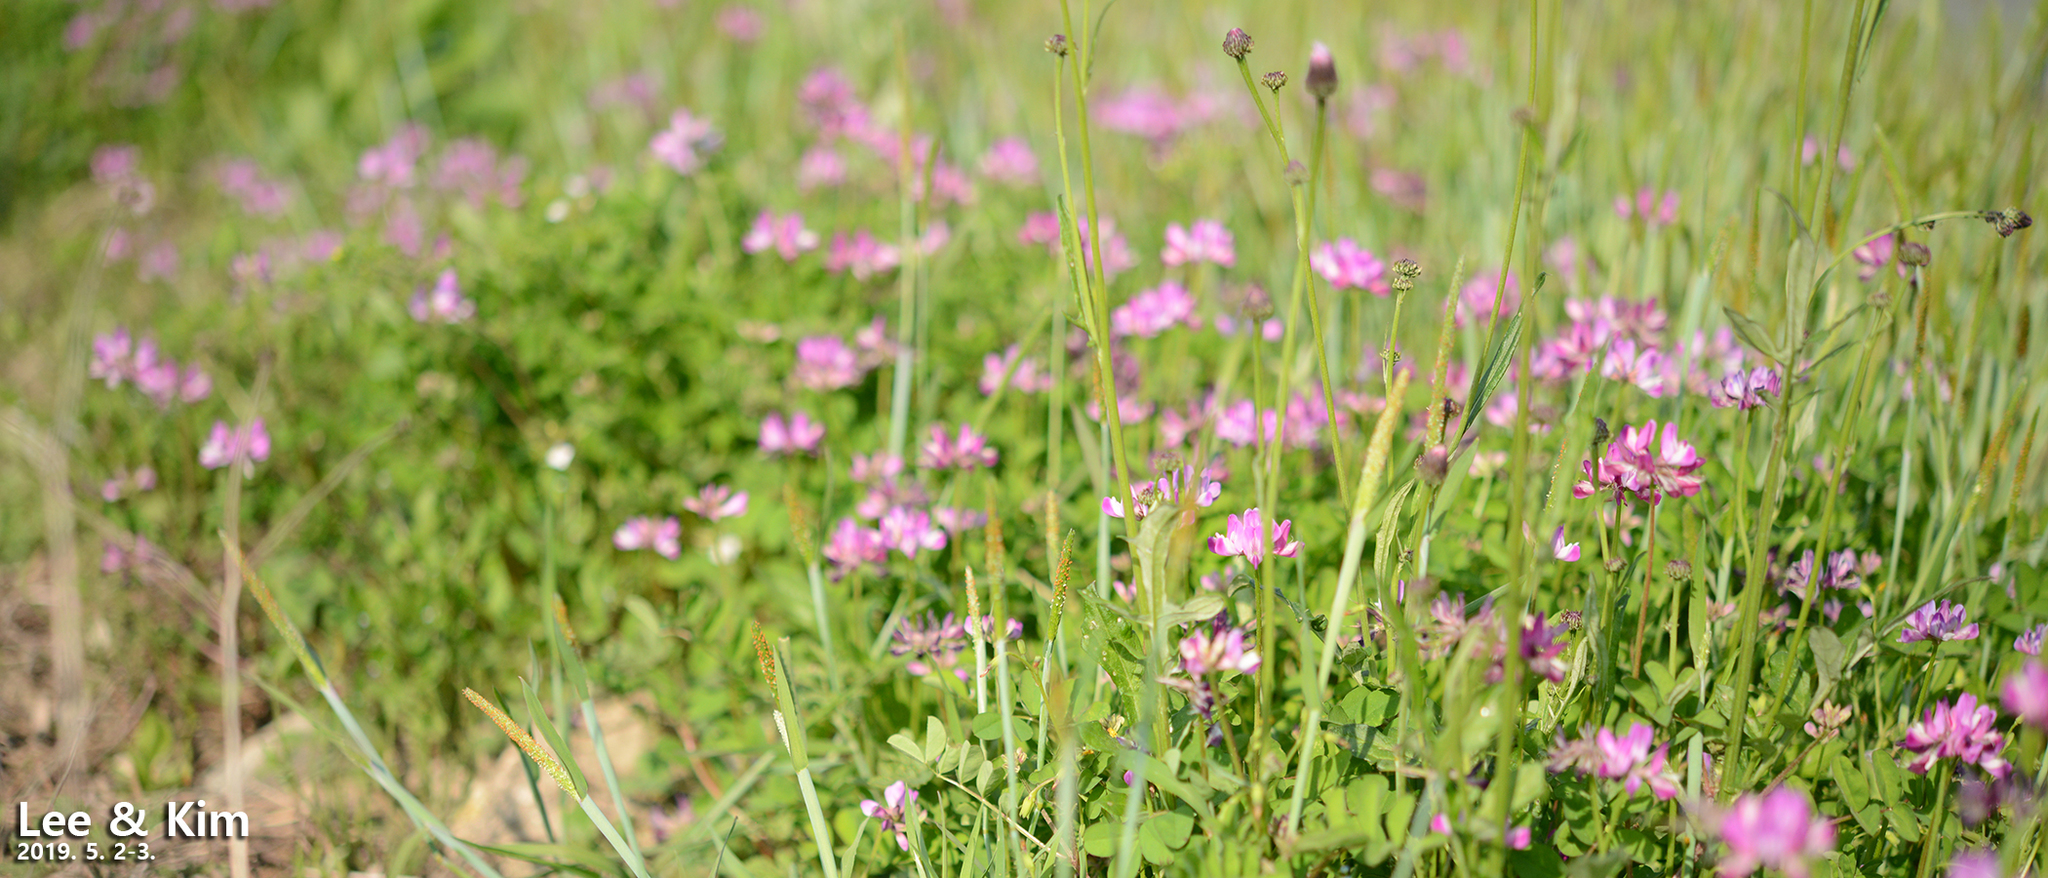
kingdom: Plantae
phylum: Tracheophyta
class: Magnoliopsida
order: Fabales
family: Fabaceae
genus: Astragalus
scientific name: Astragalus sinicus
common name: Chinese milk-vetch
